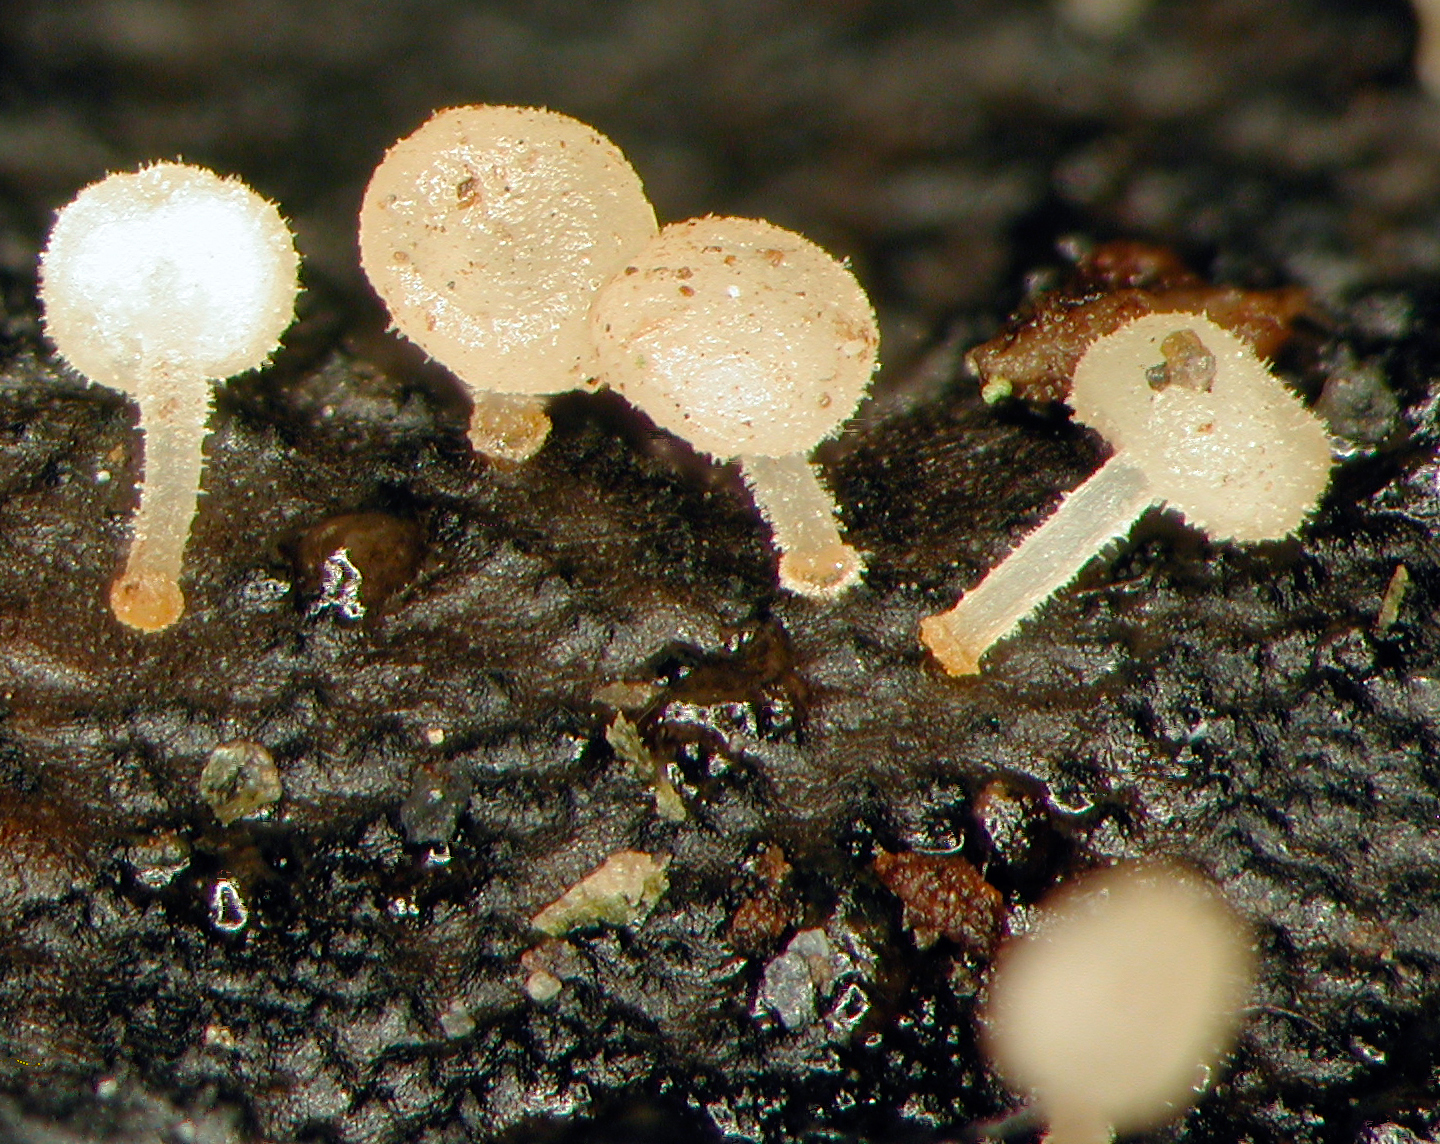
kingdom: Fungi
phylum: Basidiomycota
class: Agaricomycetes
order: Agaricales
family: Physalacriaceae
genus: Physalacria
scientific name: Physalacria stilboidea
